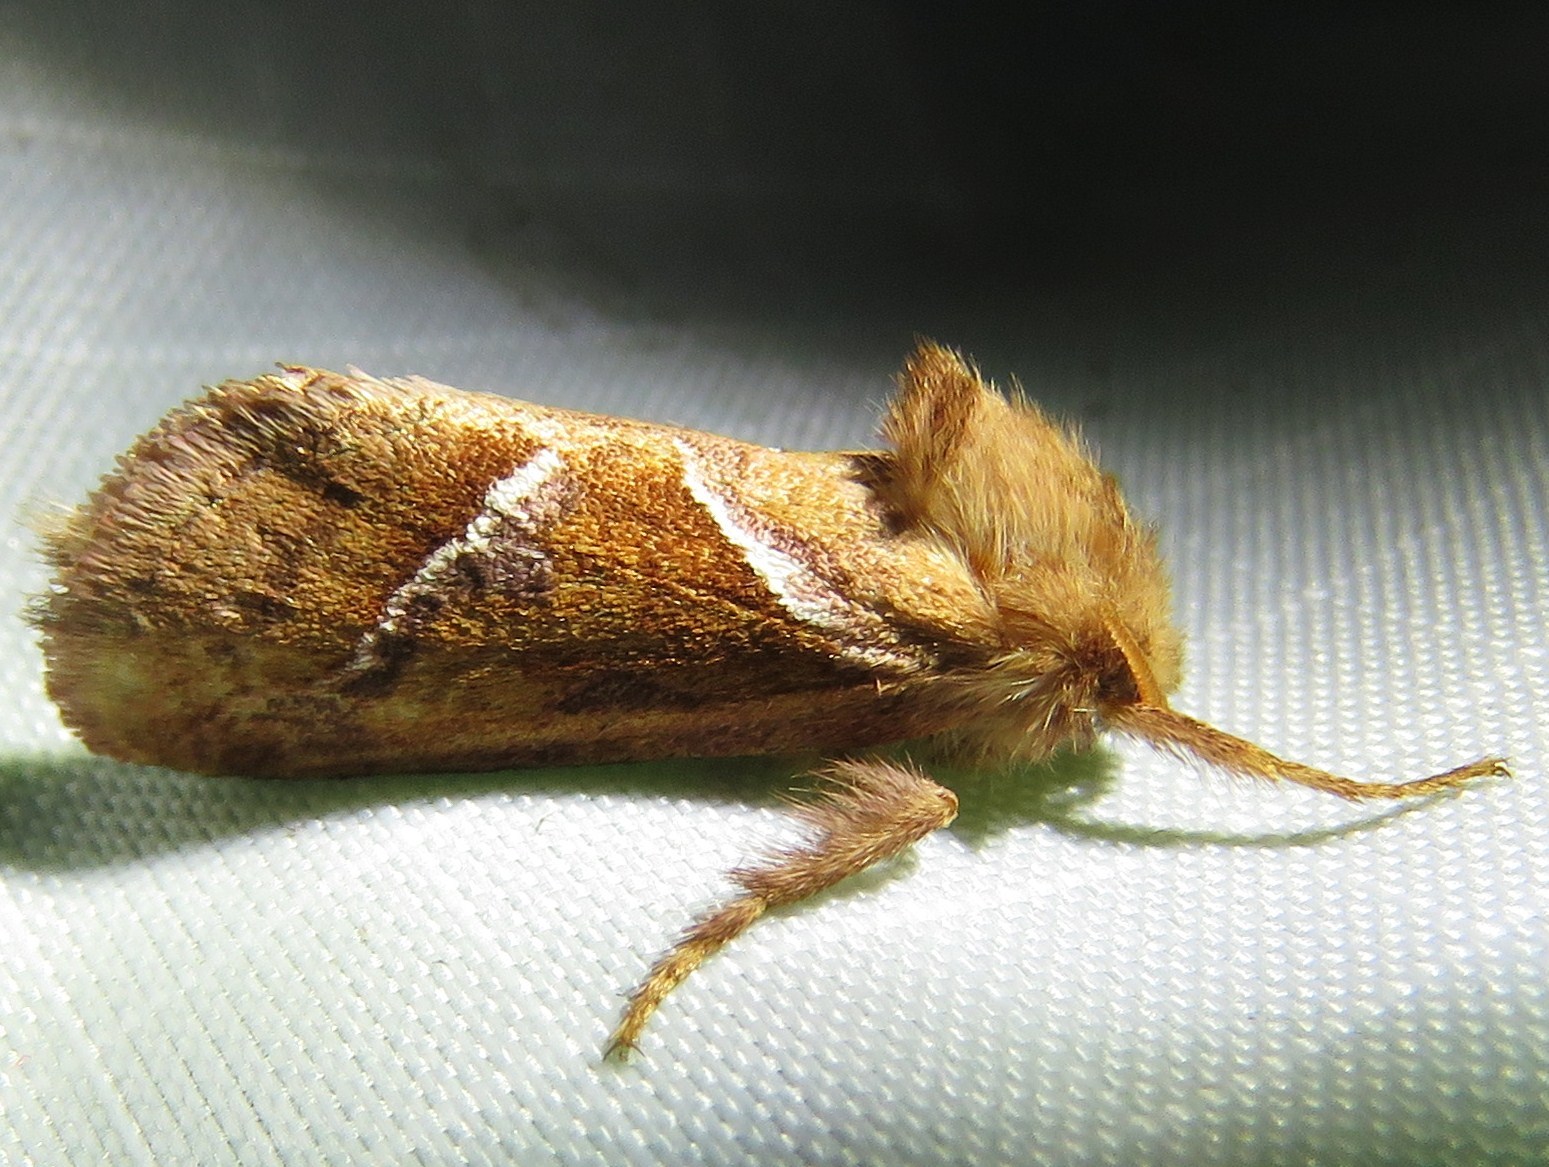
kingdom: Animalia
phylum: Arthropoda
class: Insecta
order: Lepidoptera
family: Hepialidae
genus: Triodia
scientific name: Triodia sylvina
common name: Orange swift
